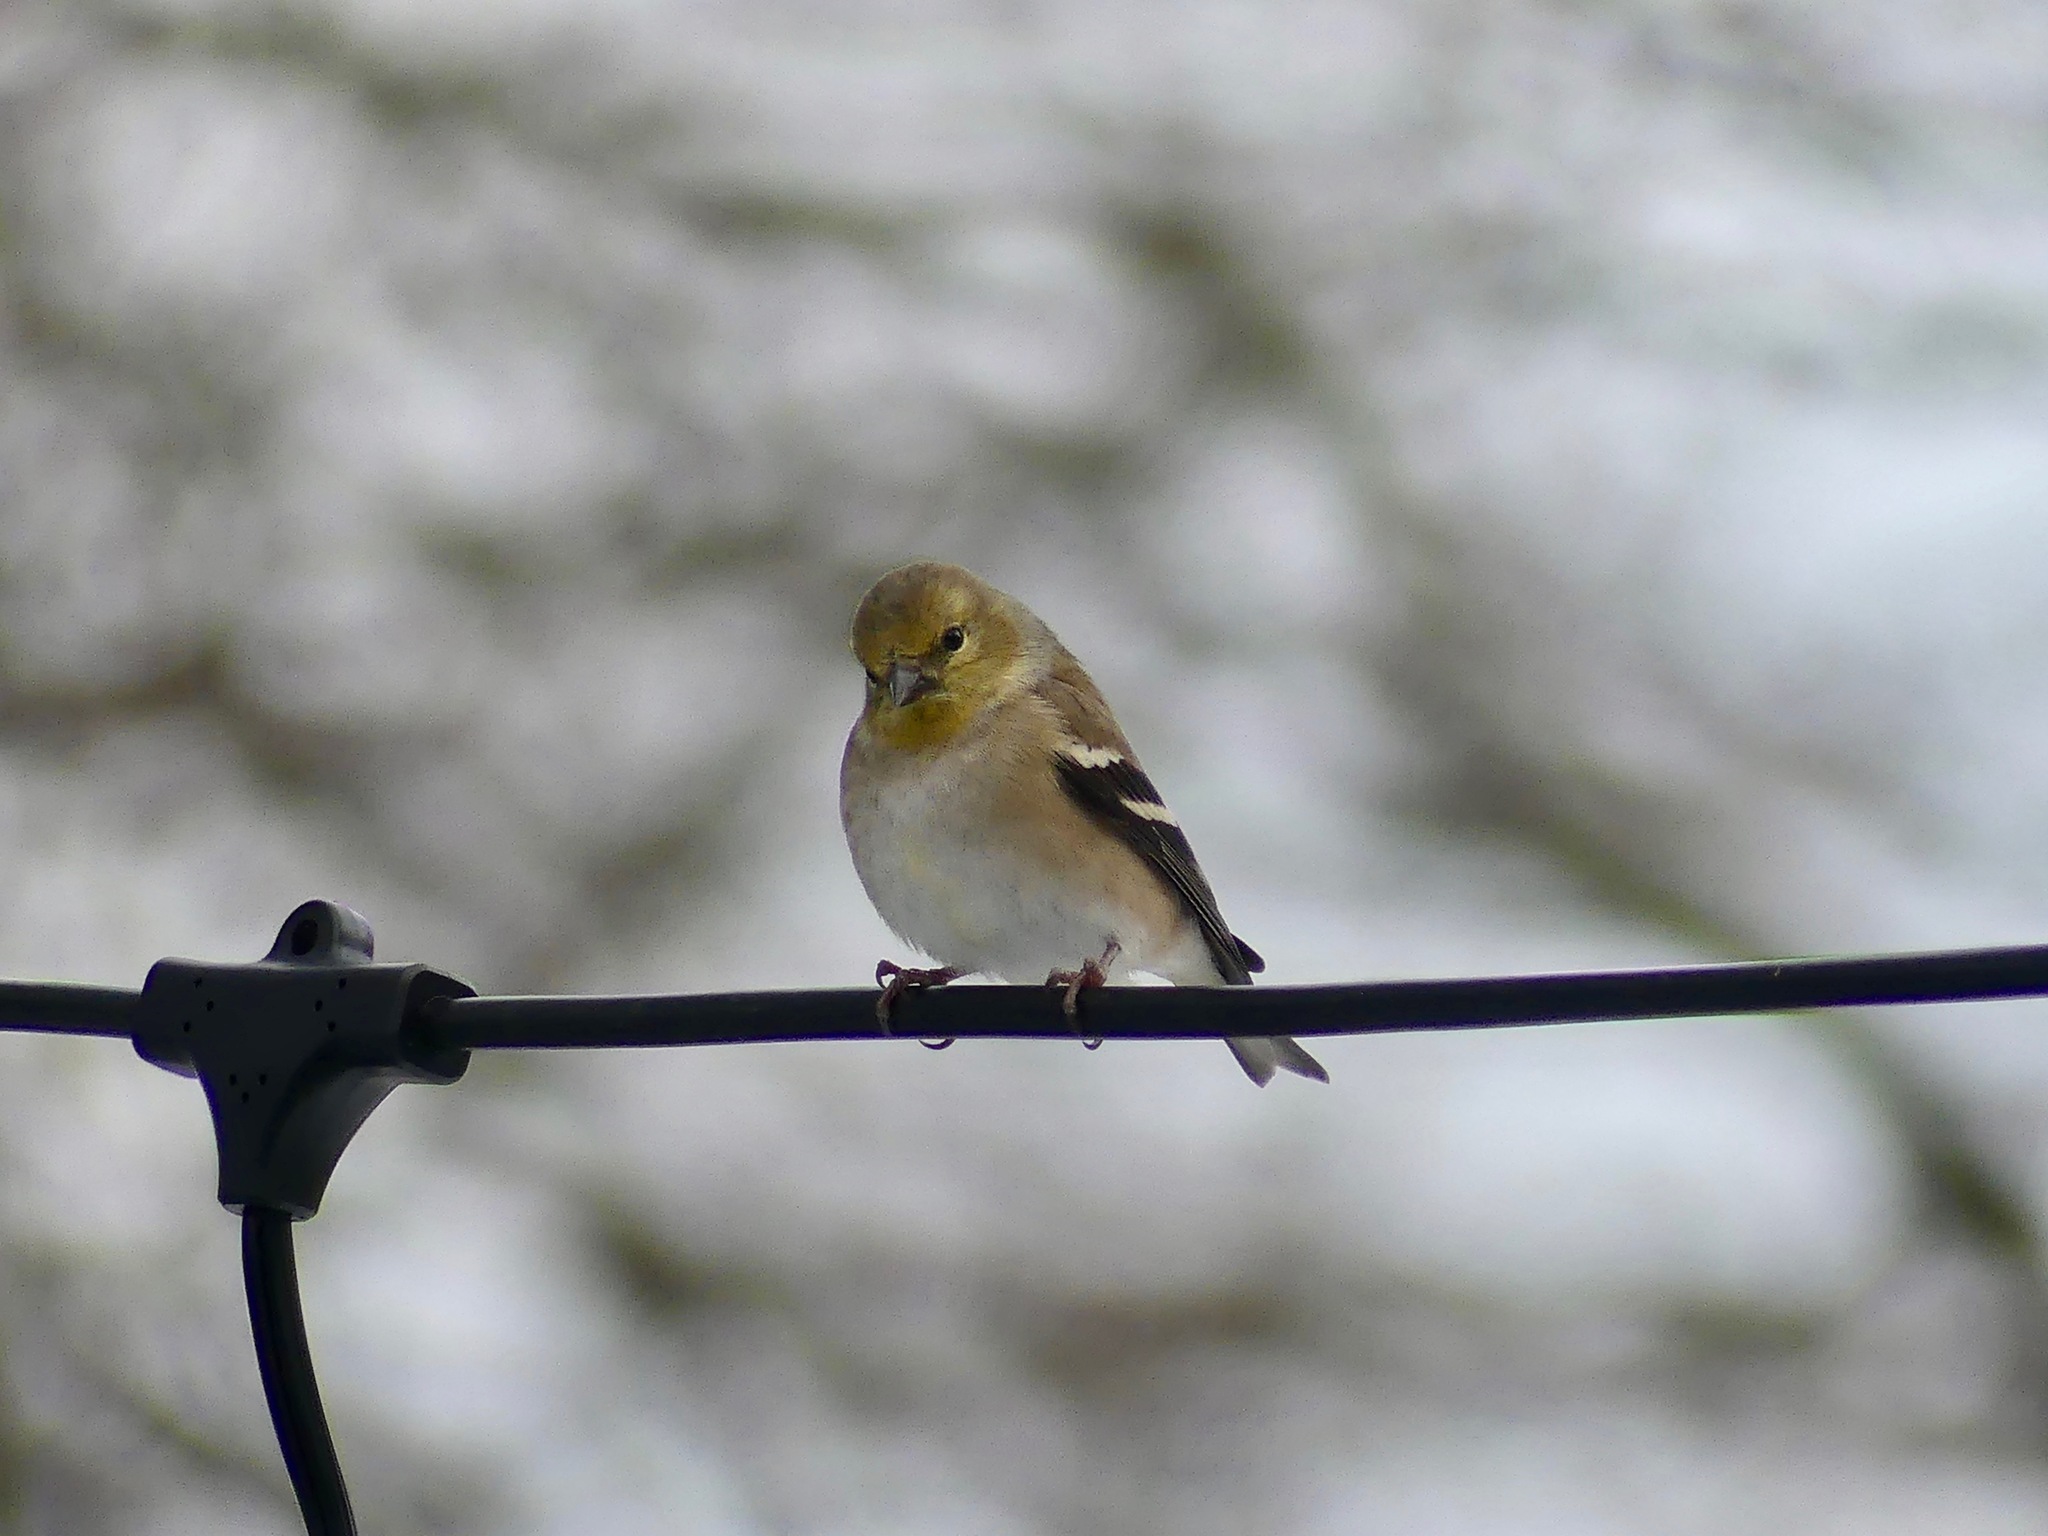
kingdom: Animalia
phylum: Chordata
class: Aves
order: Passeriformes
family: Fringillidae
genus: Spinus
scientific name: Spinus tristis
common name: American goldfinch
